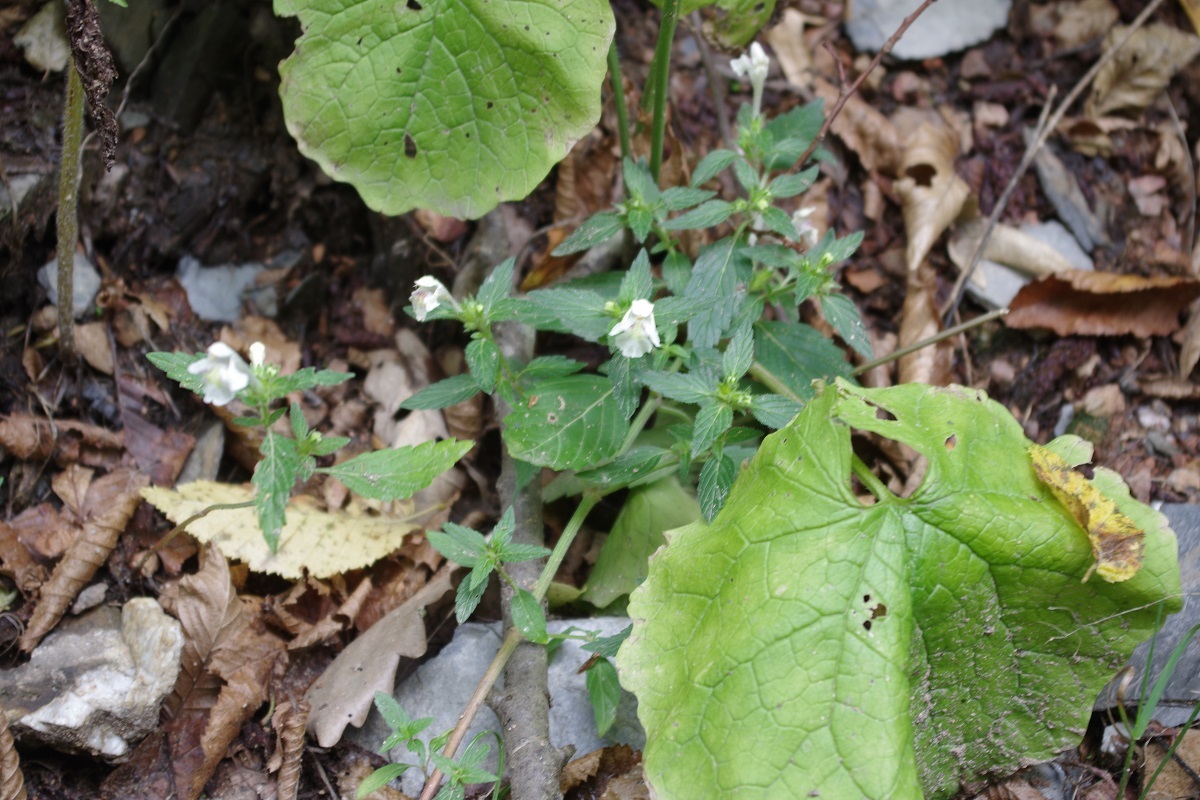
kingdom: Plantae
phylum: Tracheophyta
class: Magnoliopsida
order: Lamiales
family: Lamiaceae
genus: Galeopsis
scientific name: Galeopsis segetum
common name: Downy hemp-nettle
